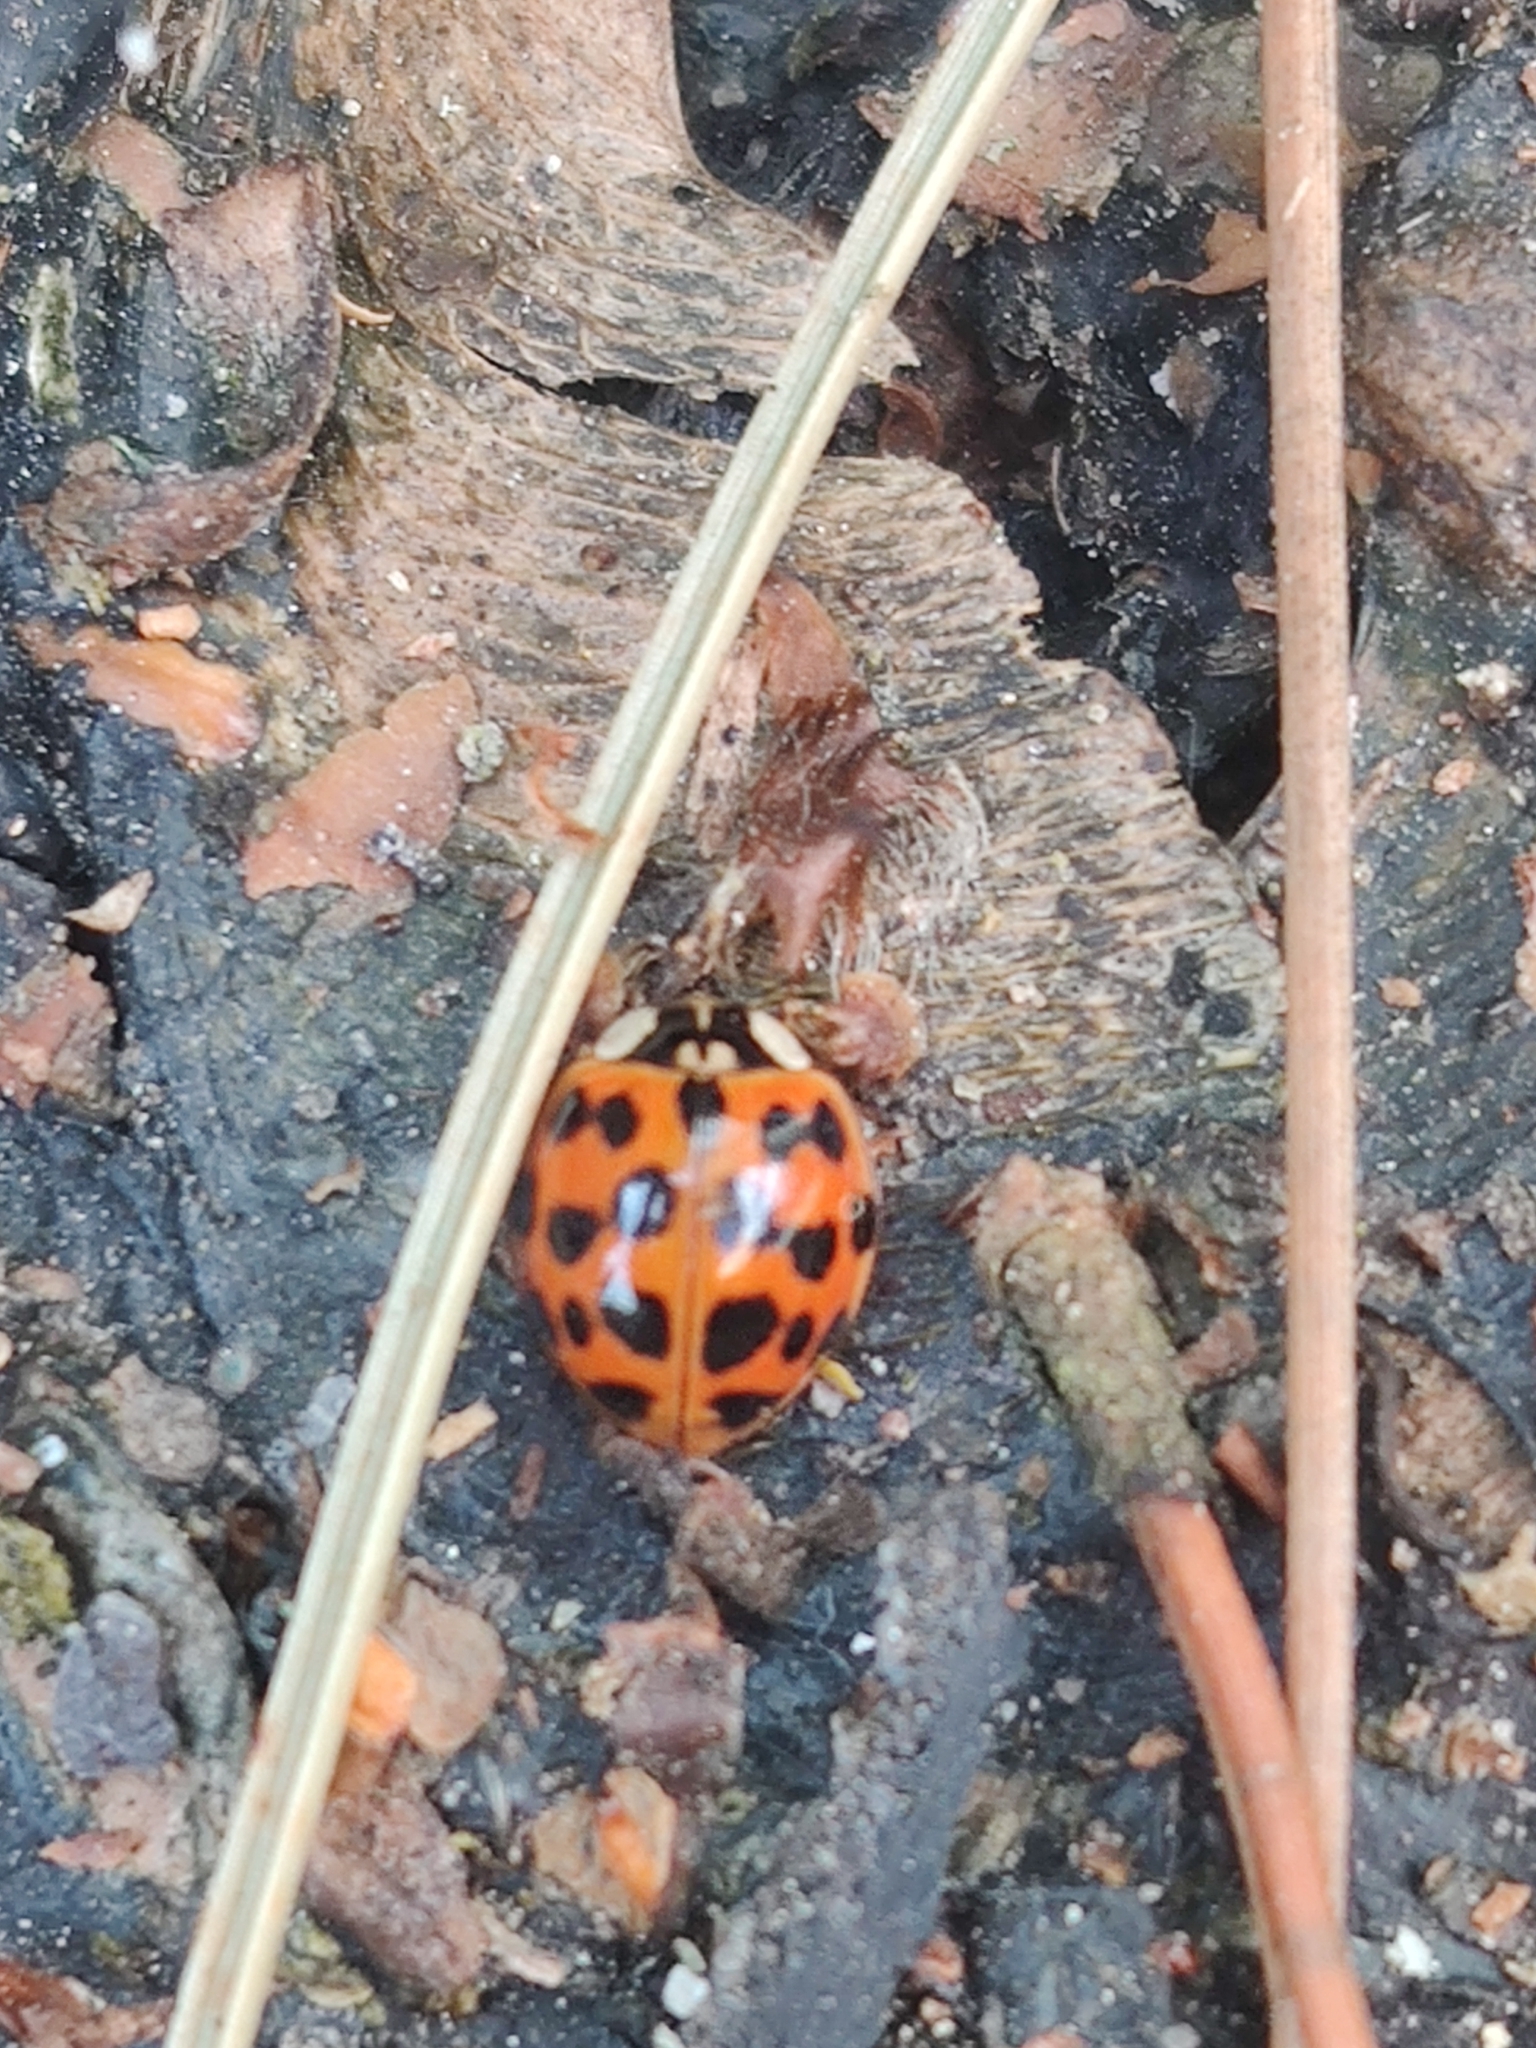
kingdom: Animalia
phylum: Arthropoda
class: Insecta
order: Coleoptera
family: Coccinellidae
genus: Harmonia
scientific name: Harmonia axyridis
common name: Harlequin ladybird
